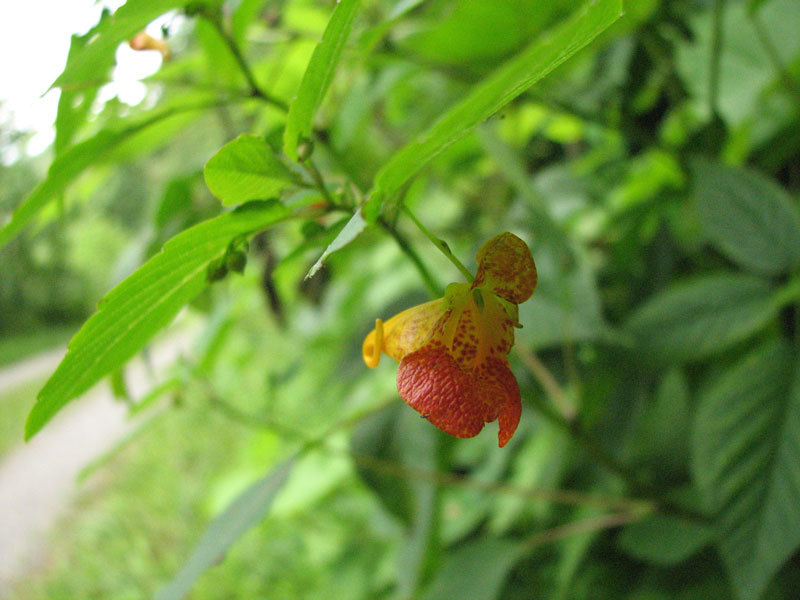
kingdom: Plantae
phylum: Tracheophyta
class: Magnoliopsida
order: Ericales
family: Balsaminaceae
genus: Impatiens
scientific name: Impatiens capensis
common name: Orange balsam
